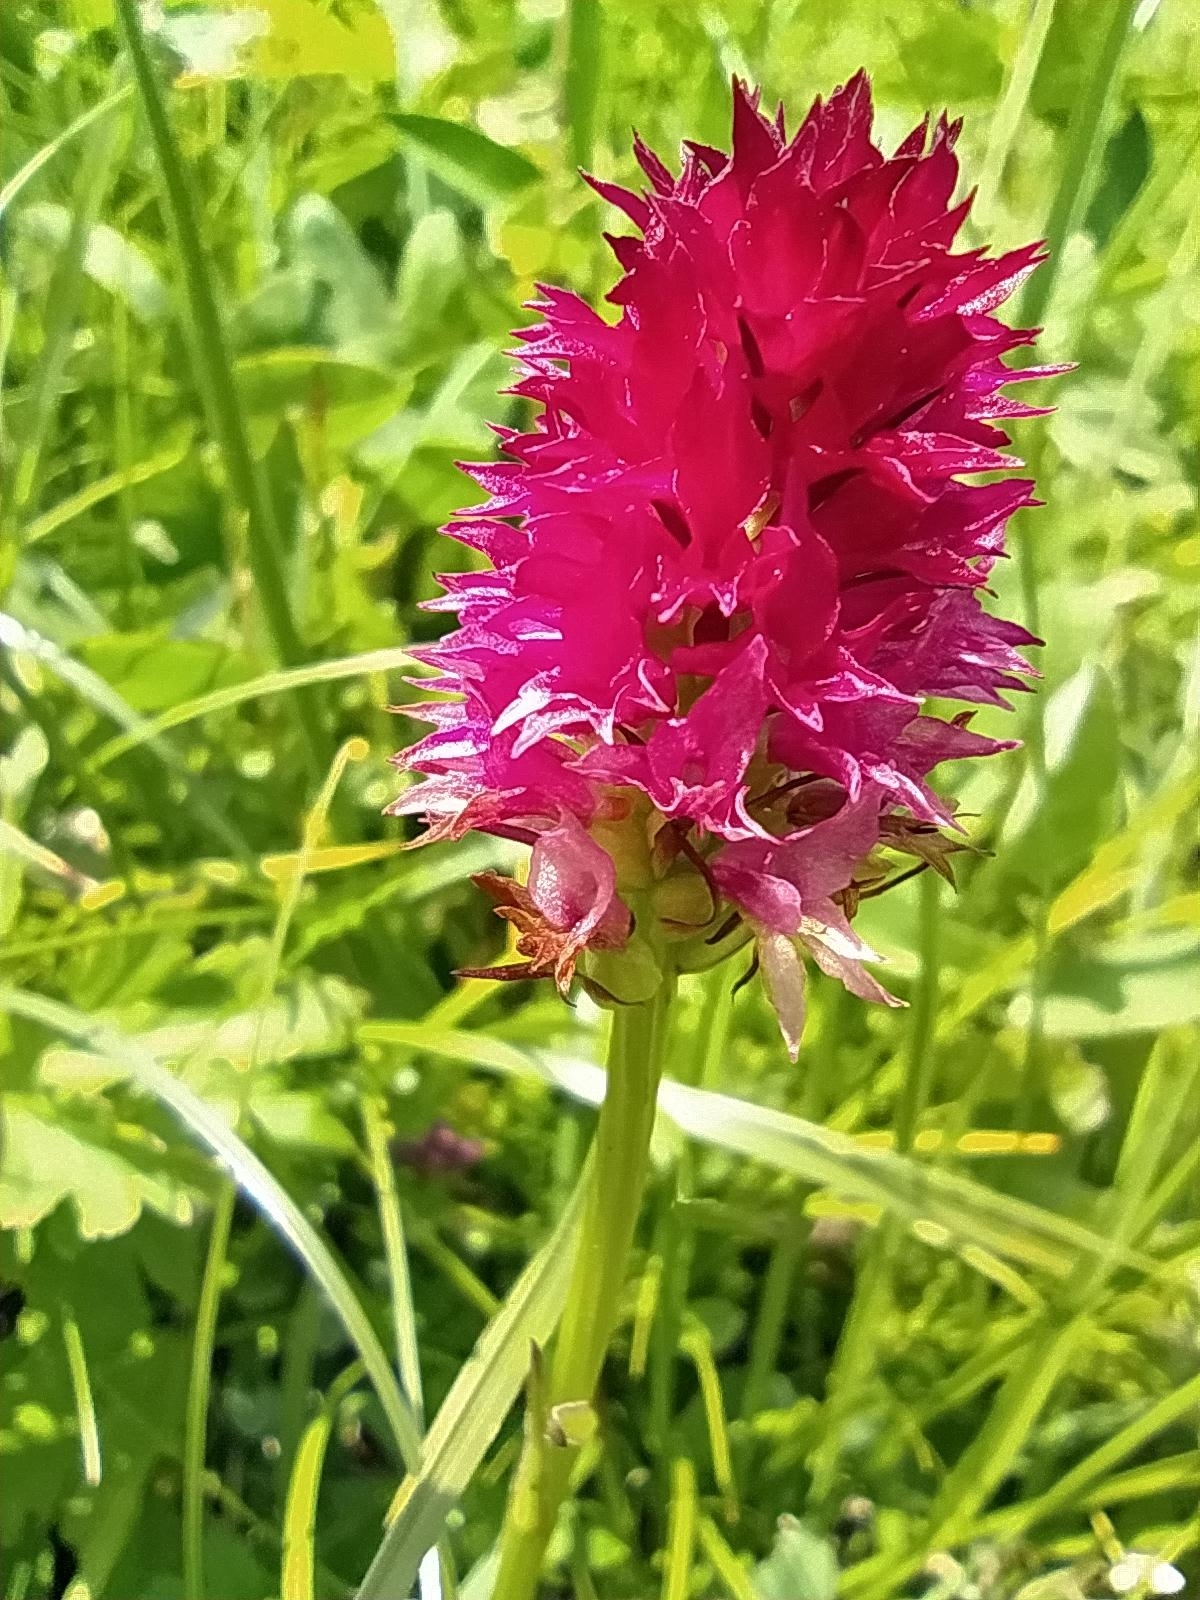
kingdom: Plantae
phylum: Tracheophyta
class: Liliopsida
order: Asparagales
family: Orchidaceae
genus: Gymnadenia
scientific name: Gymnadenia miniata
